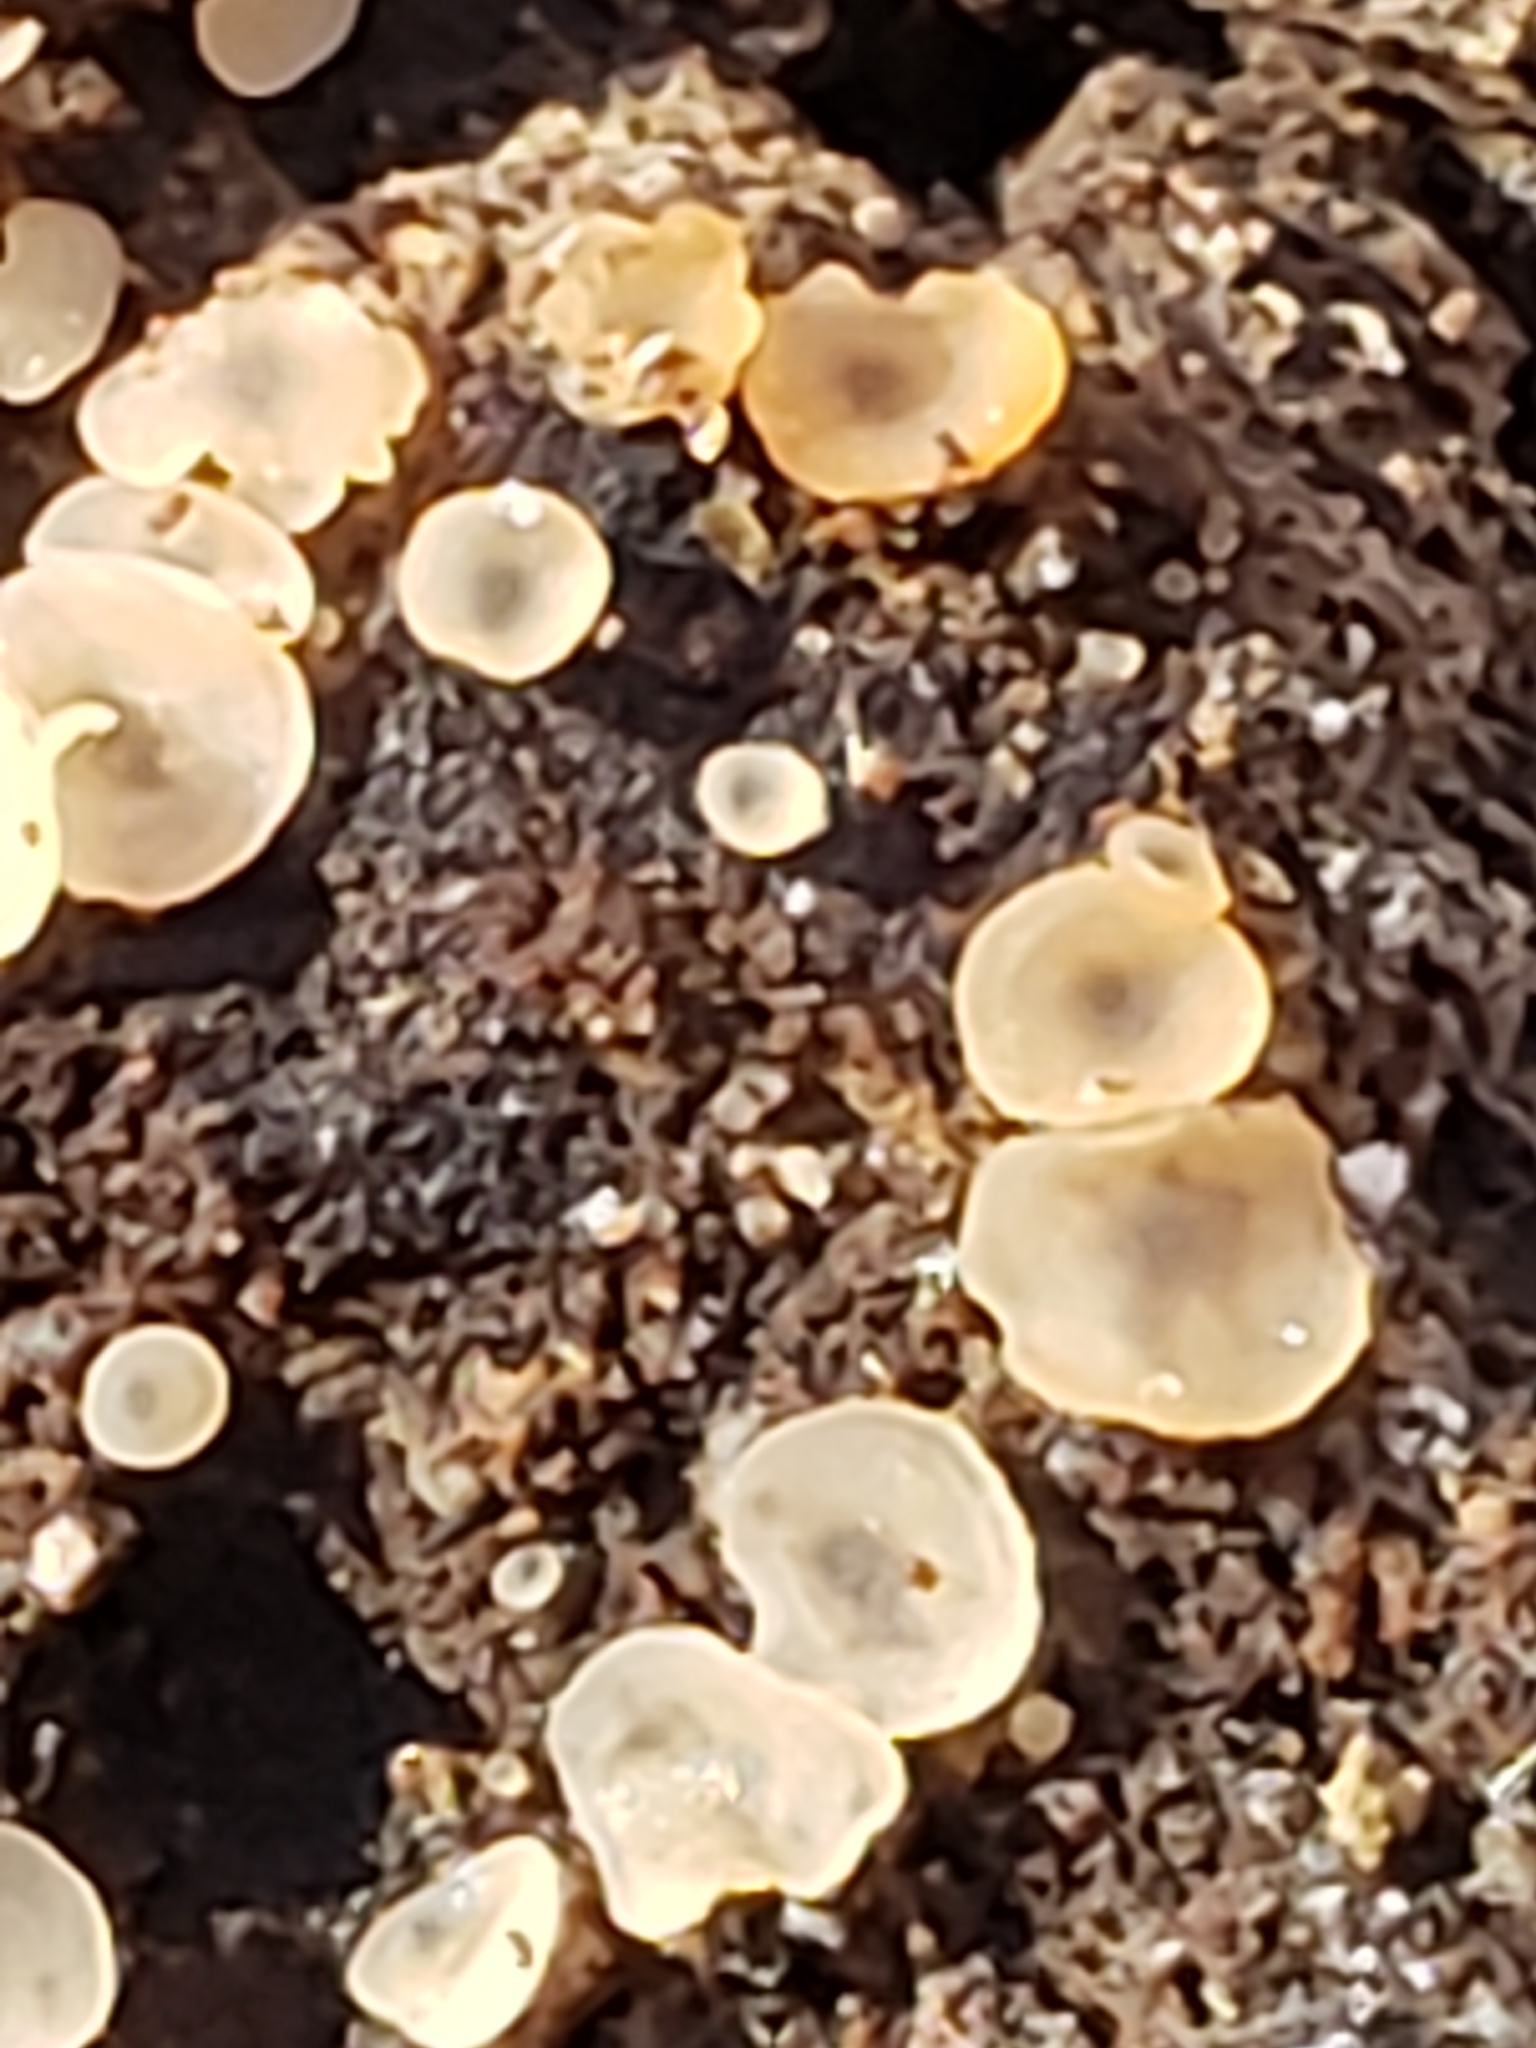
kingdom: Fungi
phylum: Ascomycota
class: Orbiliomycetes
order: Orbiliales
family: Orbiliaceae
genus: Hyalorbilia
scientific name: Hyalorbilia
